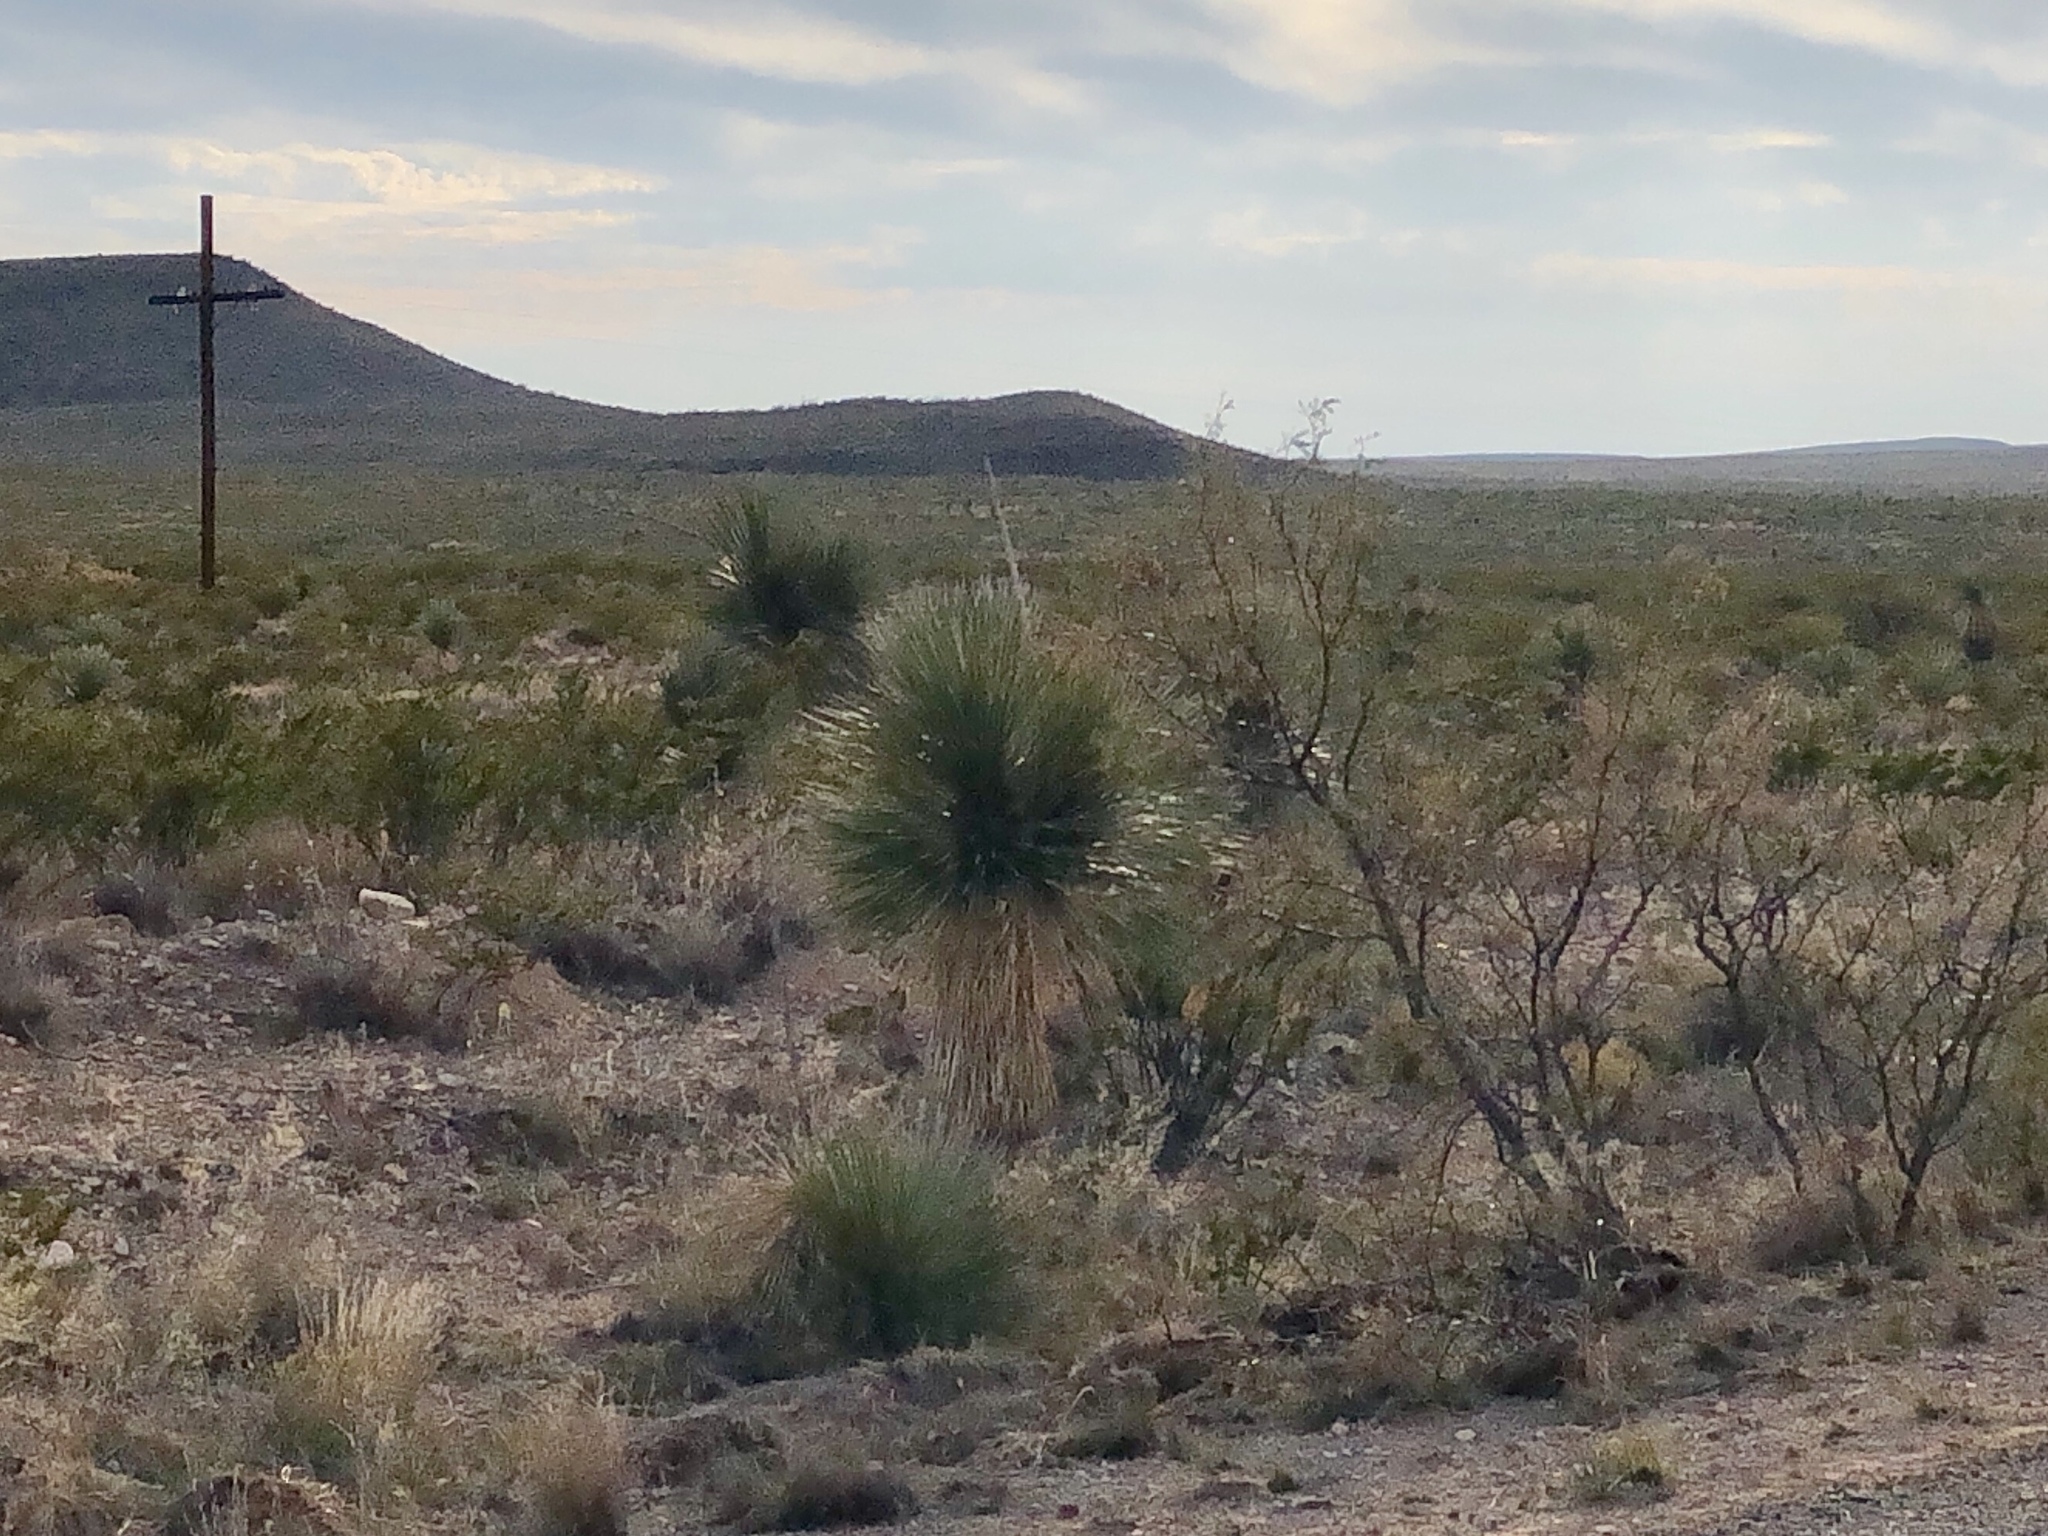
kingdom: Plantae
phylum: Tracheophyta
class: Liliopsida
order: Asparagales
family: Asparagaceae
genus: Yucca
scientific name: Yucca elata
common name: Palmella
